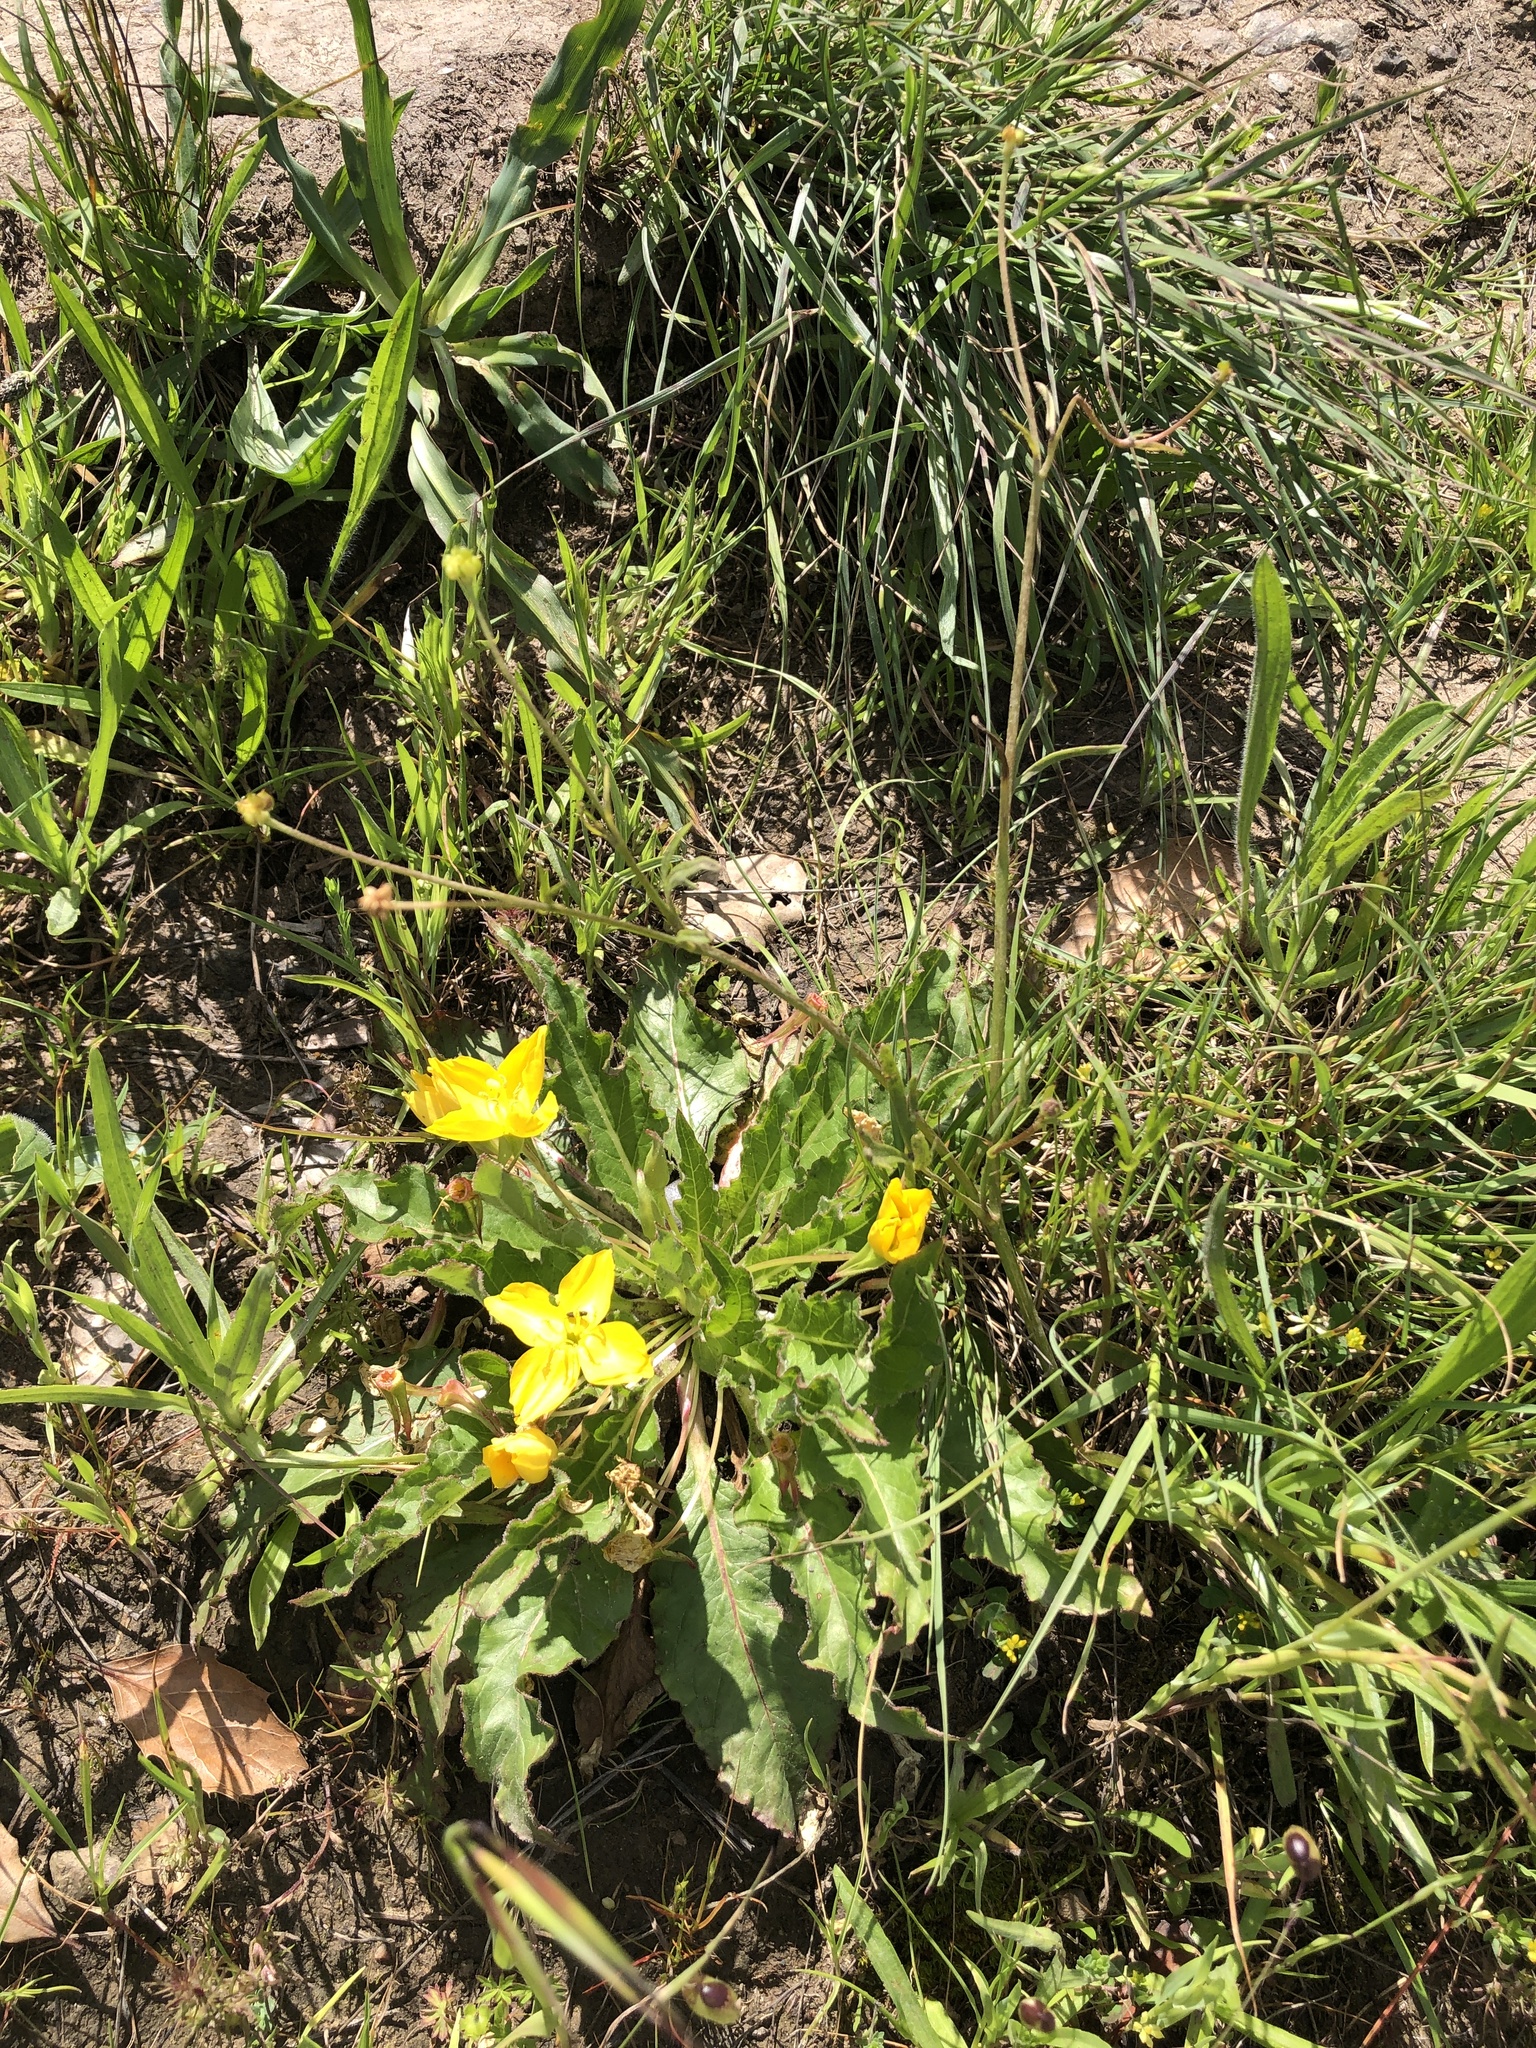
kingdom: Plantae
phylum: Tracheophyta
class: Magnoliopsida
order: Myrtales
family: Onagraceae
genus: Taraxia
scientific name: Taraxia ovata
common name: Goldeneggs
